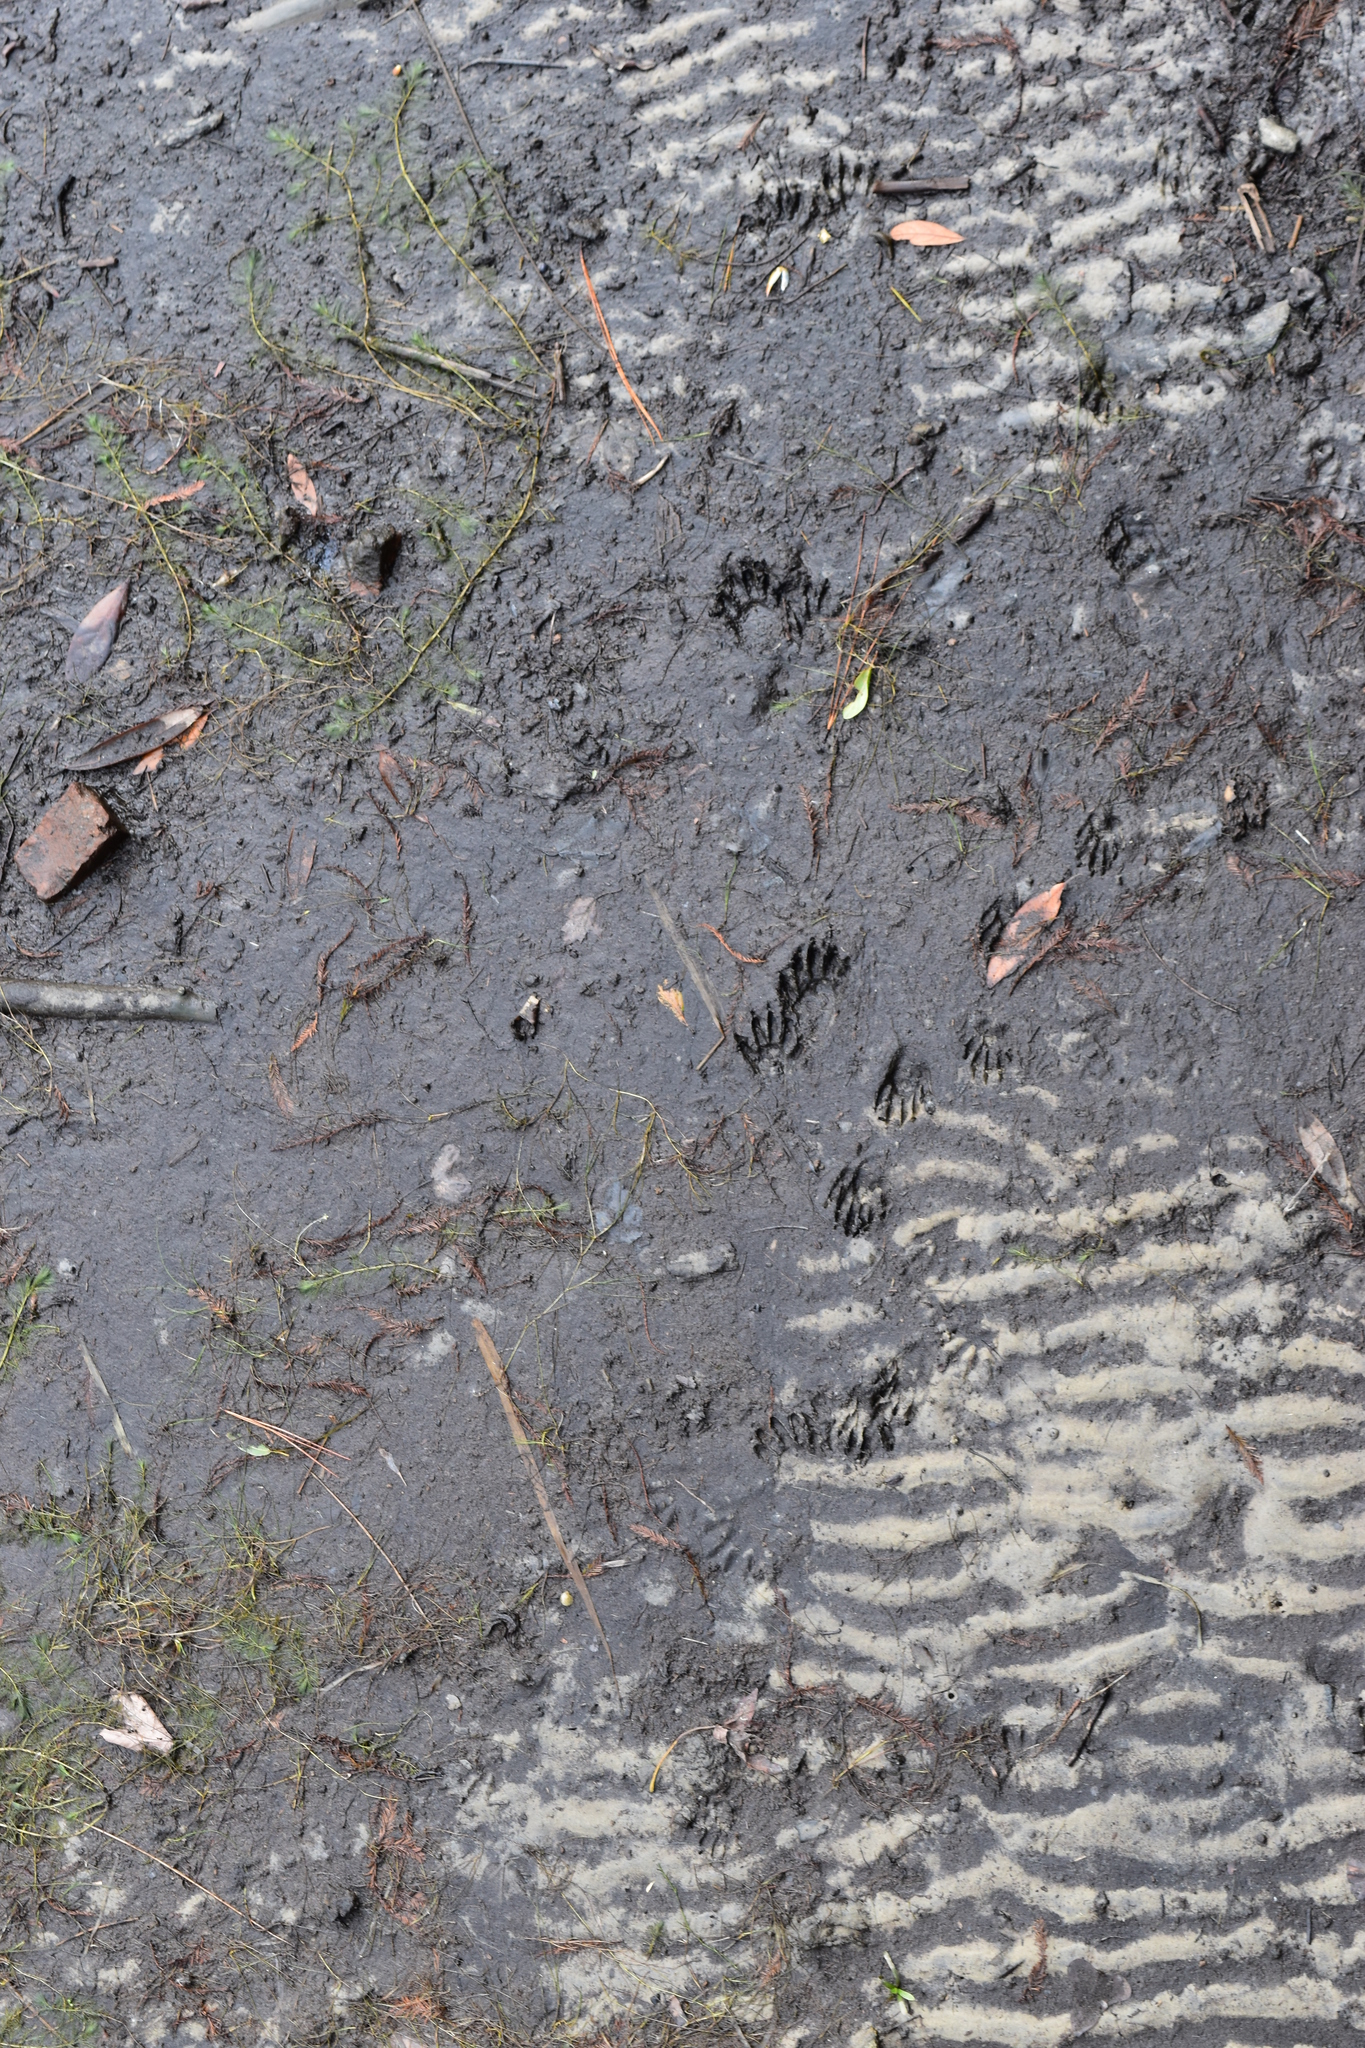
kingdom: Animalia
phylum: Chordata
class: Mammalia
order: Carnivora
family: Procyonidae
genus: Procyon
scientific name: Procyon lotor
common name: Raccoon
